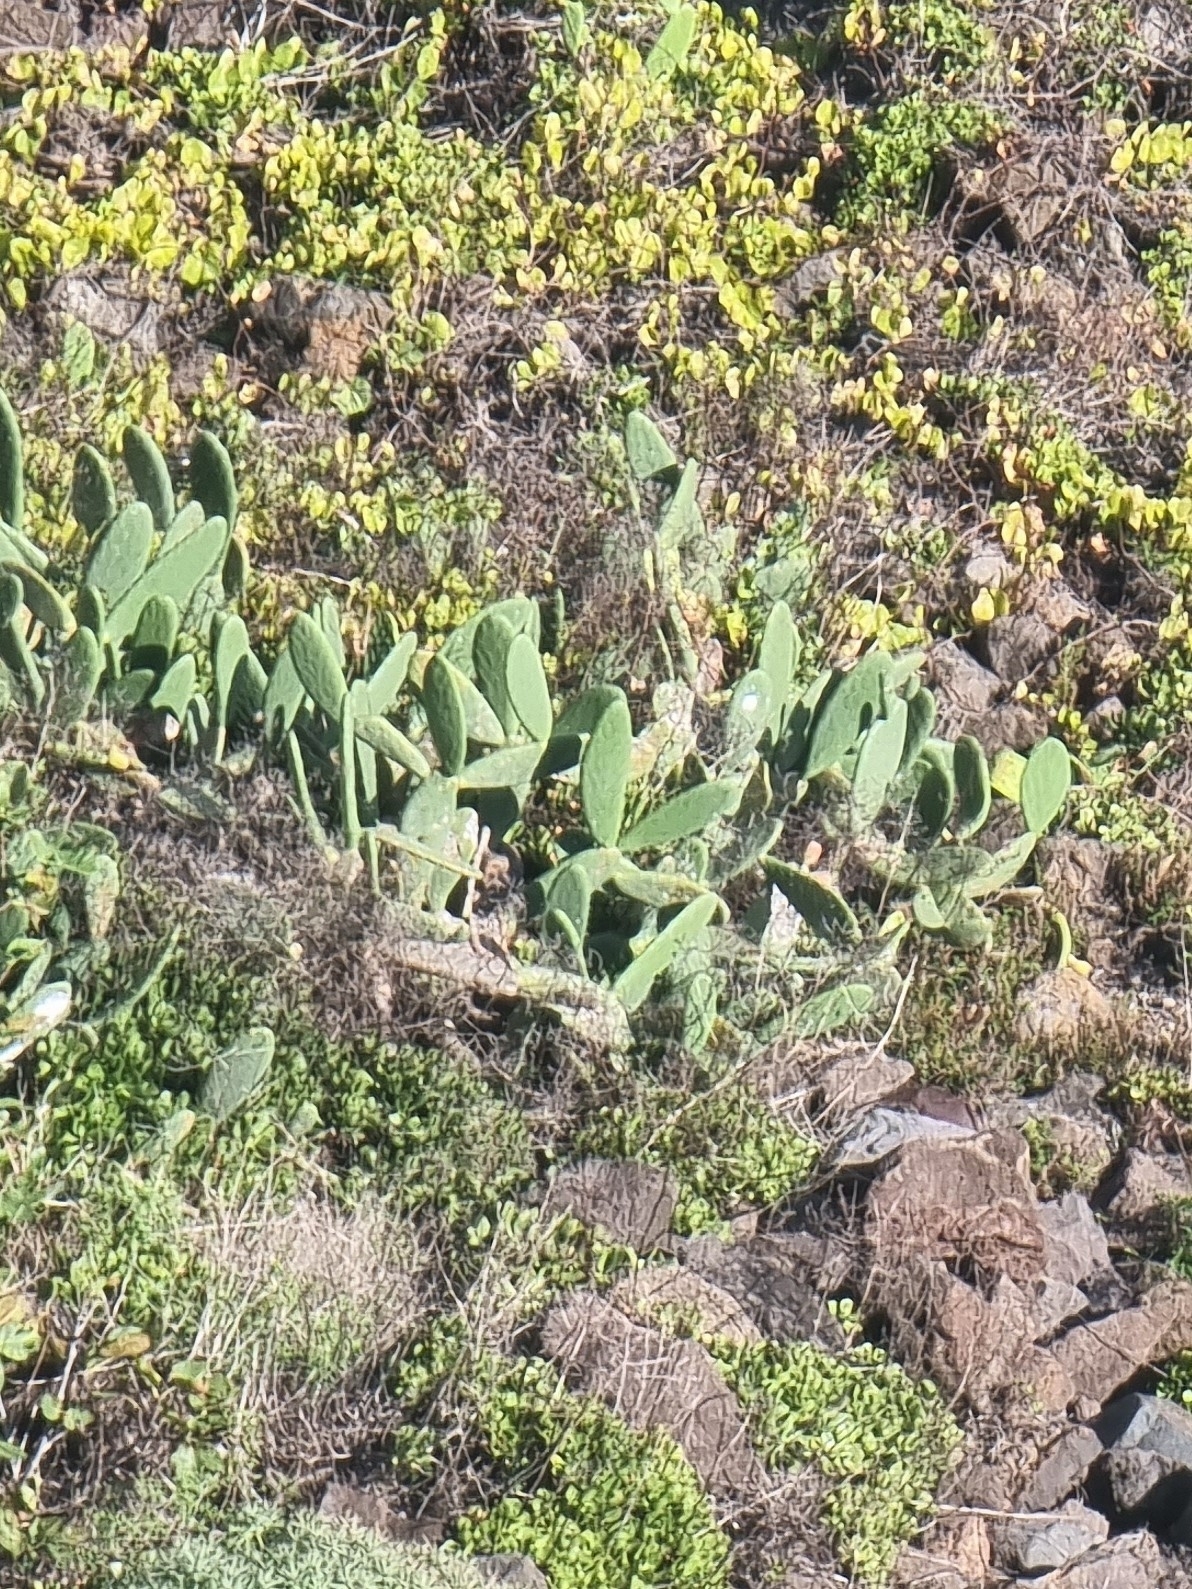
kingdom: Plantae
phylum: Tracheophyta
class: Magnoliopsida
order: Caryophyllales
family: Cactaceae
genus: Opuntia
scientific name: Opuntia ficus-indica
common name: Barbary fig
